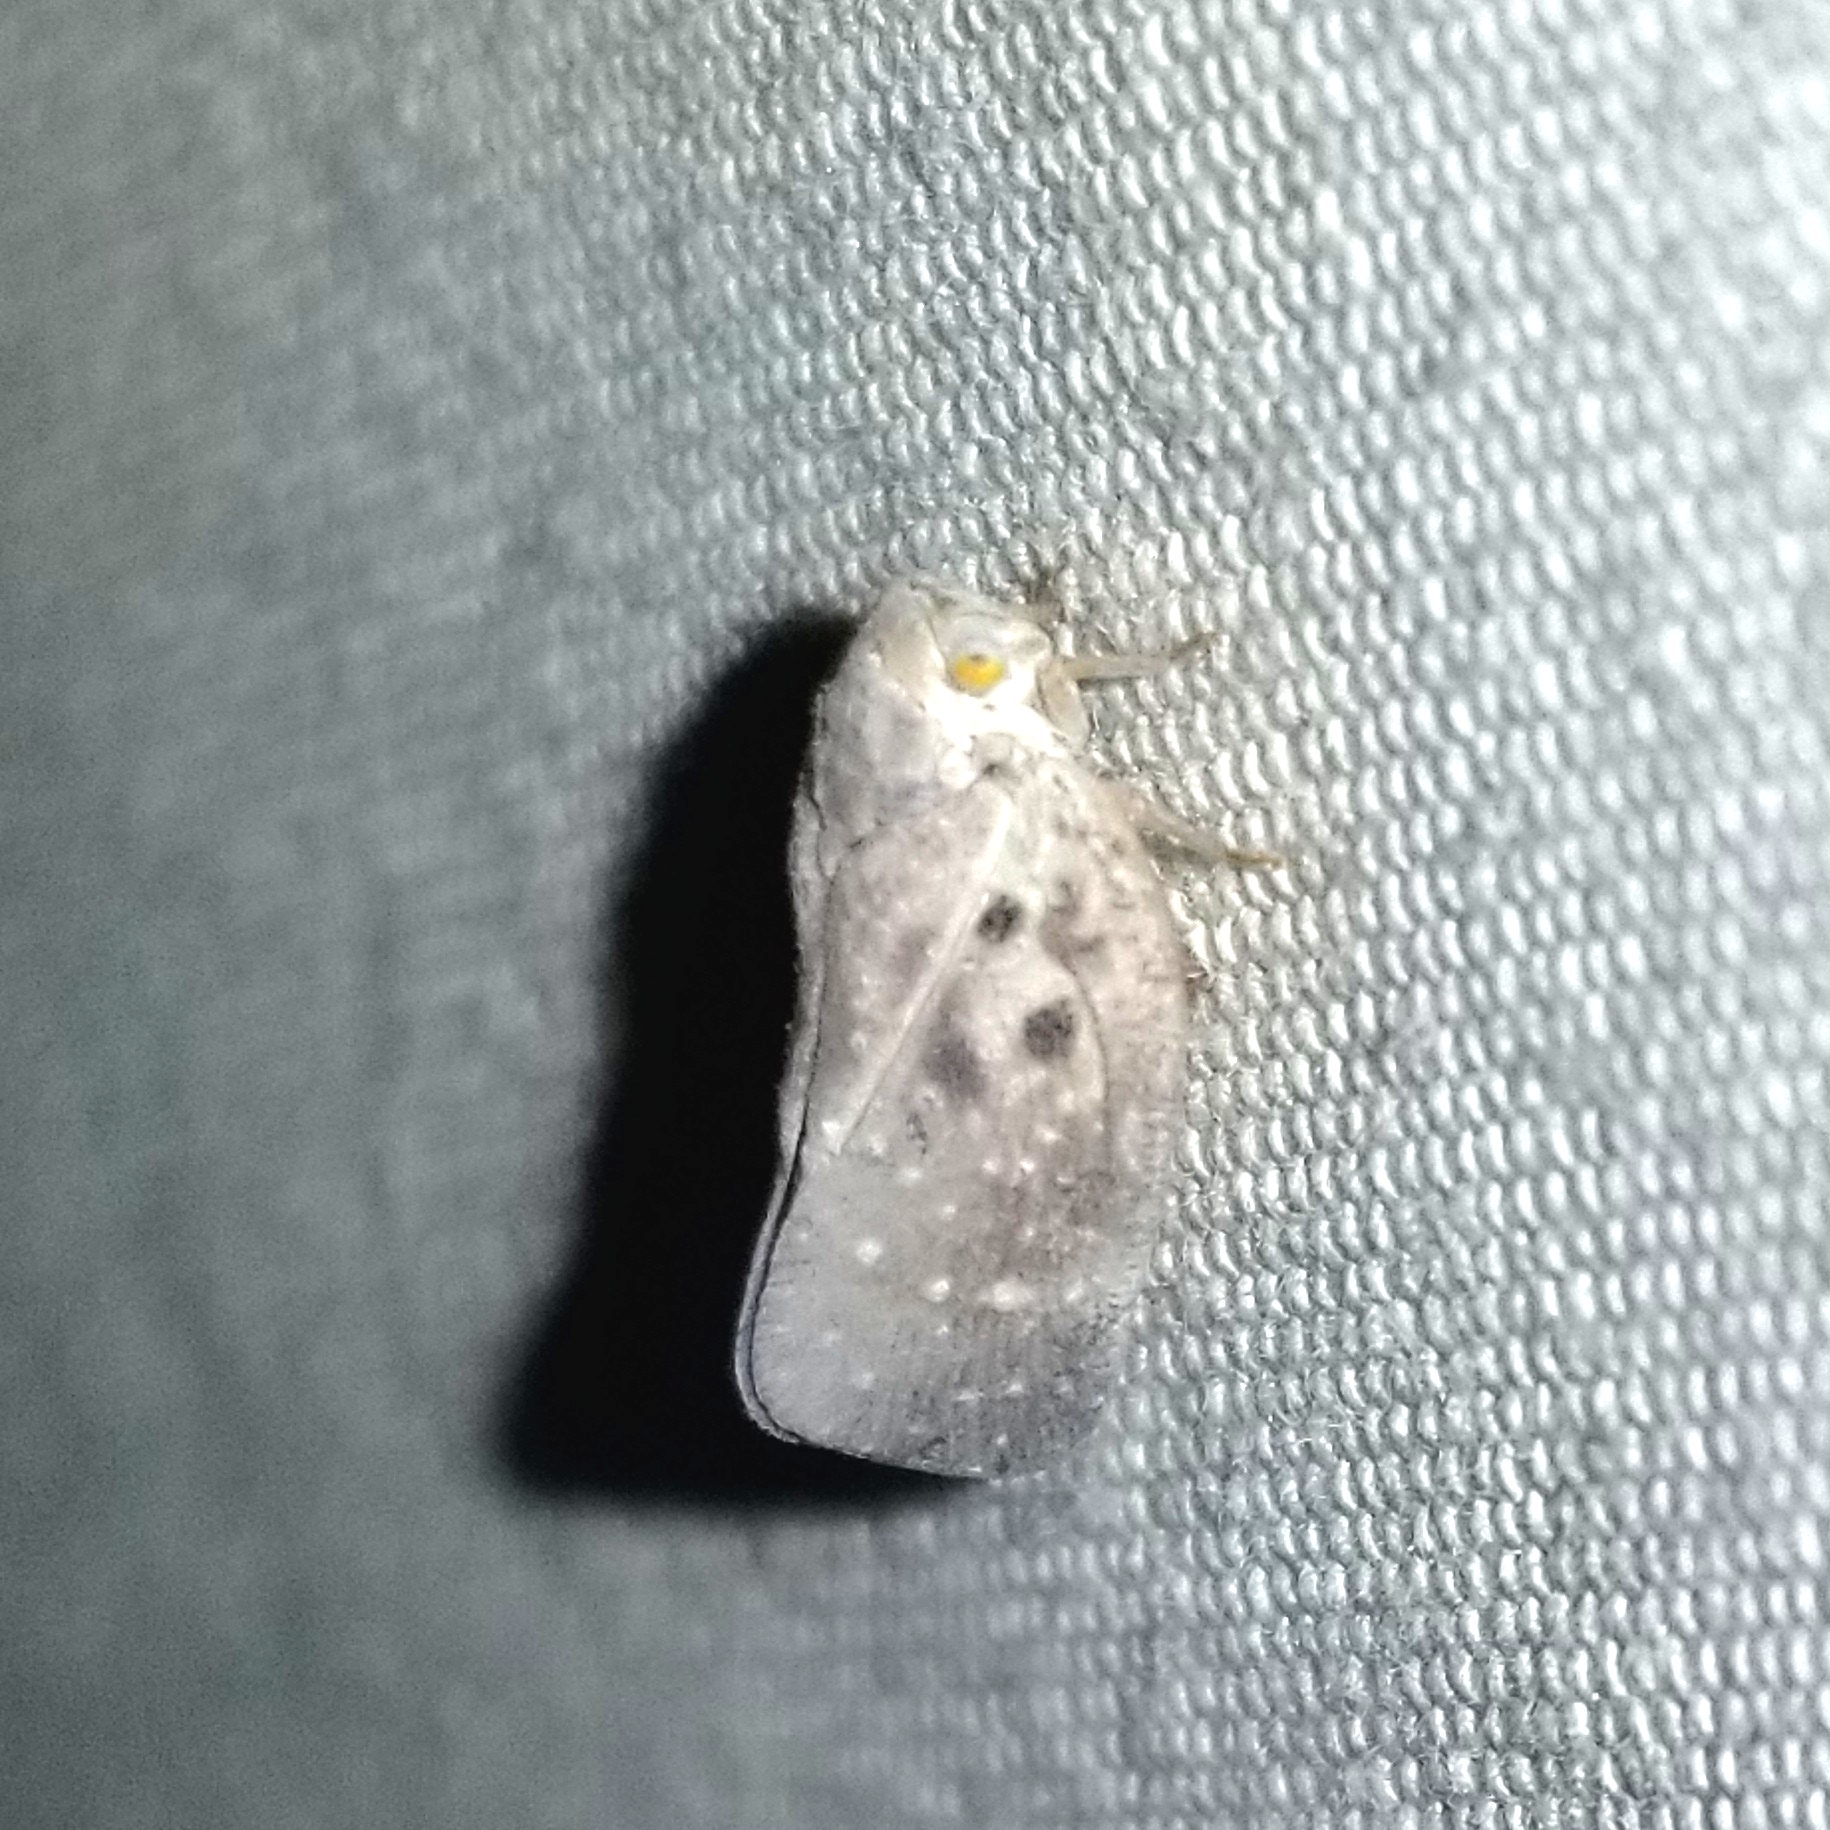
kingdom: Animalia
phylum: Arthropoda
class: Insecta
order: Hemiptera
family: Flatidae
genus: Metcalfa
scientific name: Metcalfa pruinosa
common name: Citrus flatid planthopper
